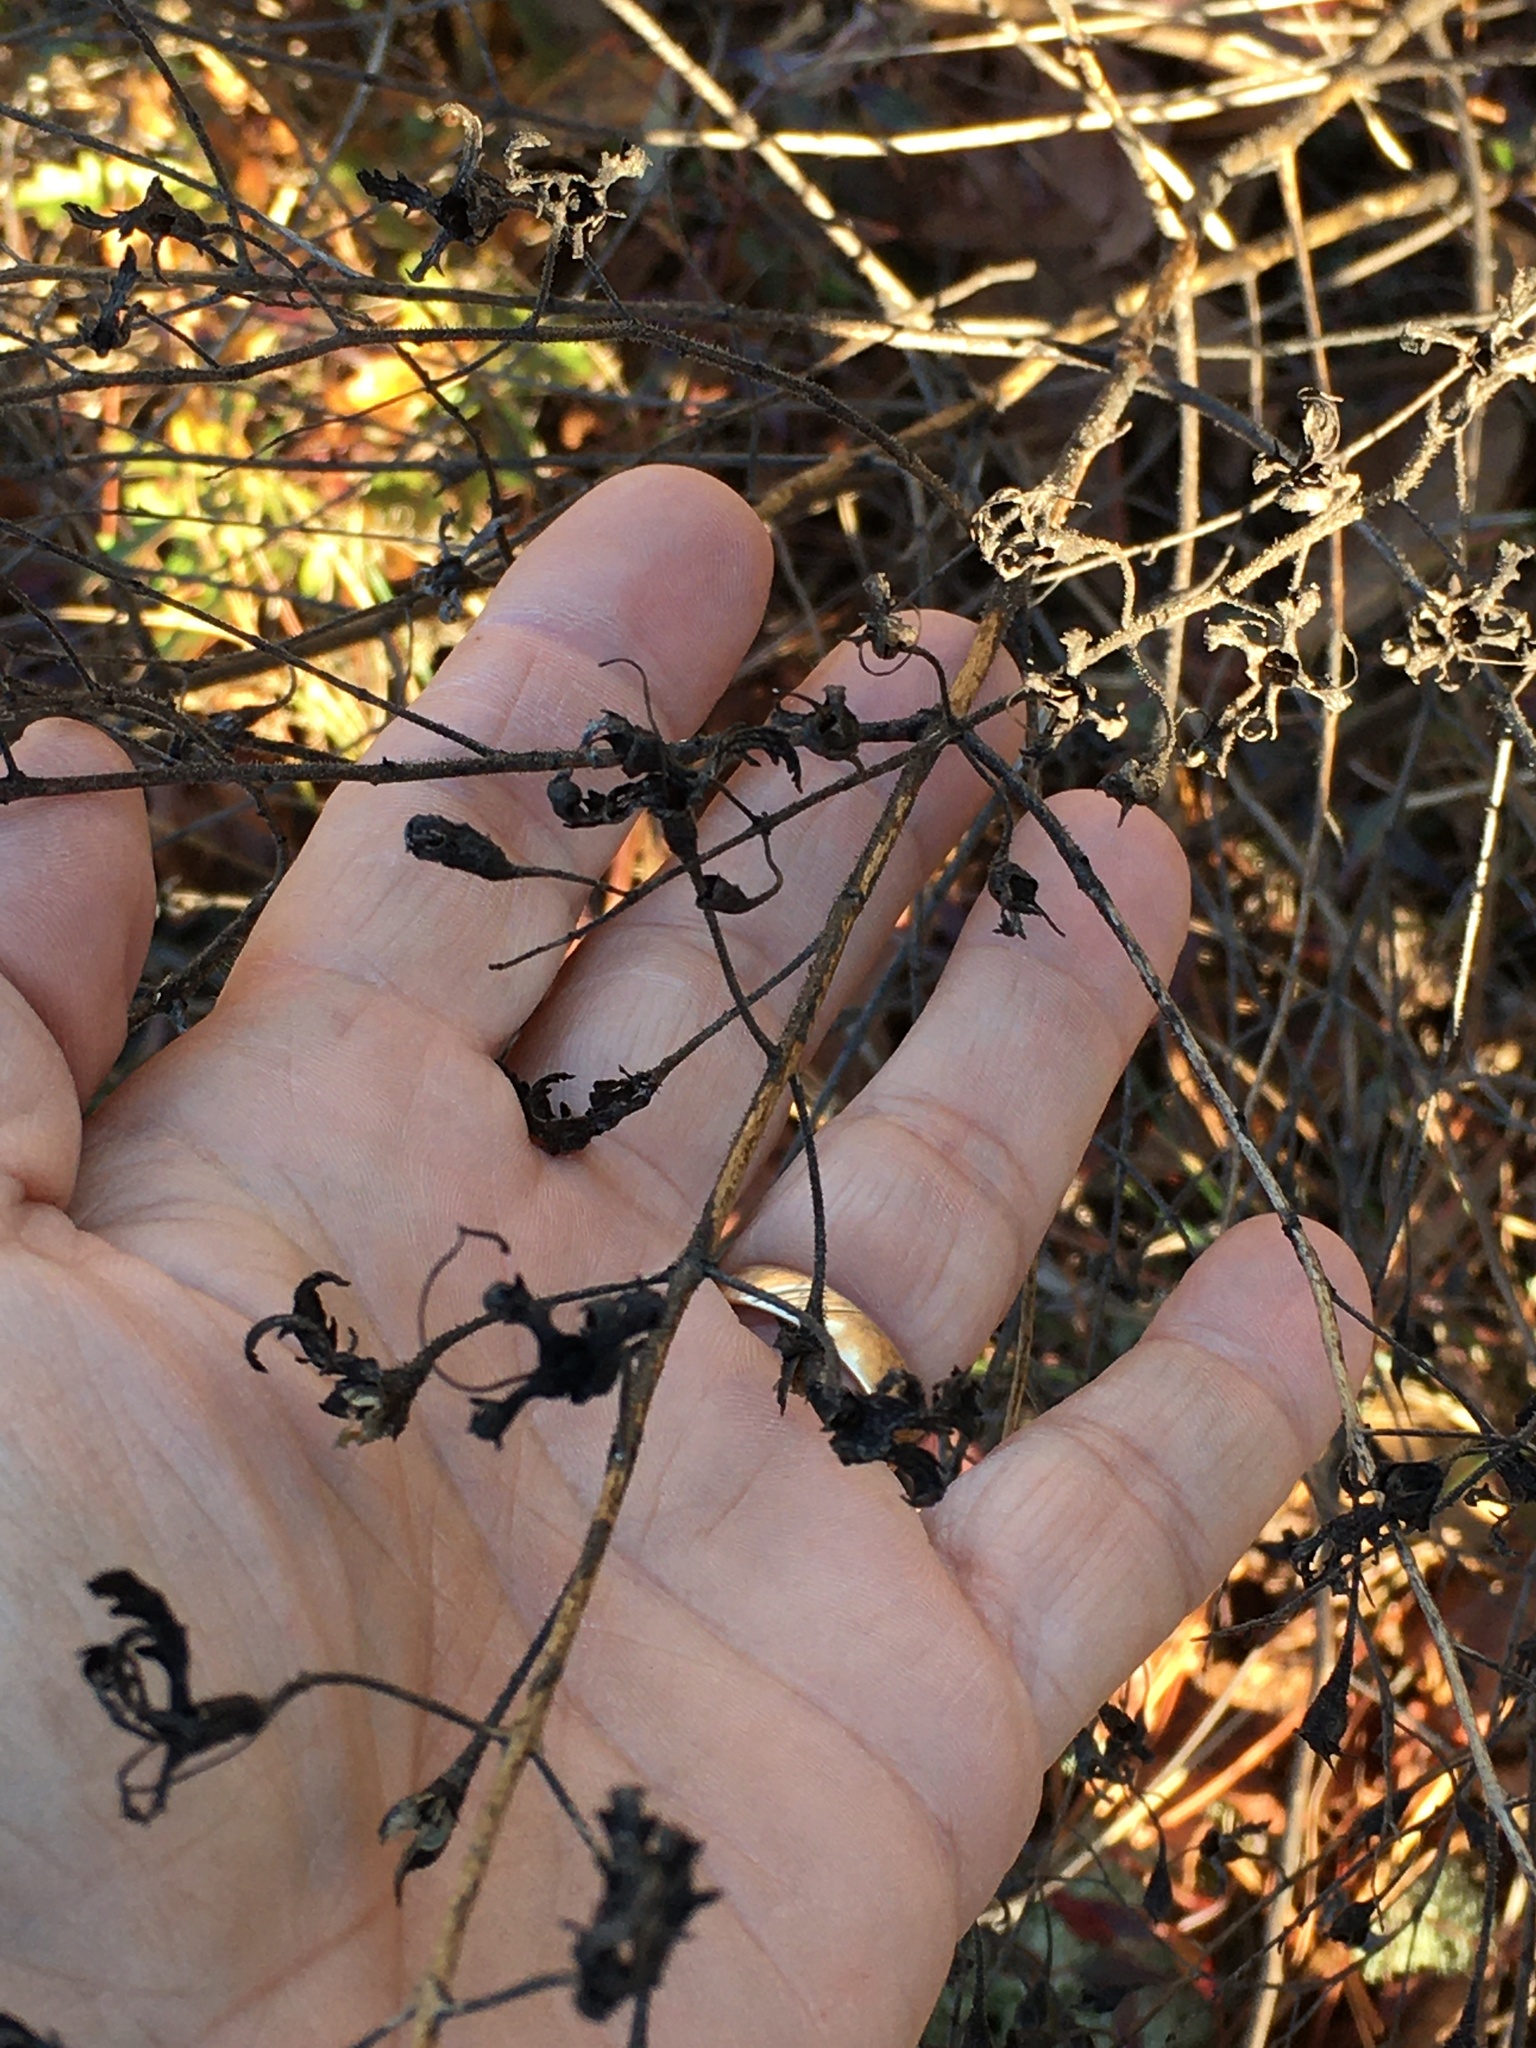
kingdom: Plantae
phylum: Tracheophyta
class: Magnoliopsida
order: Lamiales
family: Orobanchaceae
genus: Aureolaria
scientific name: Aureolaria pectinata
